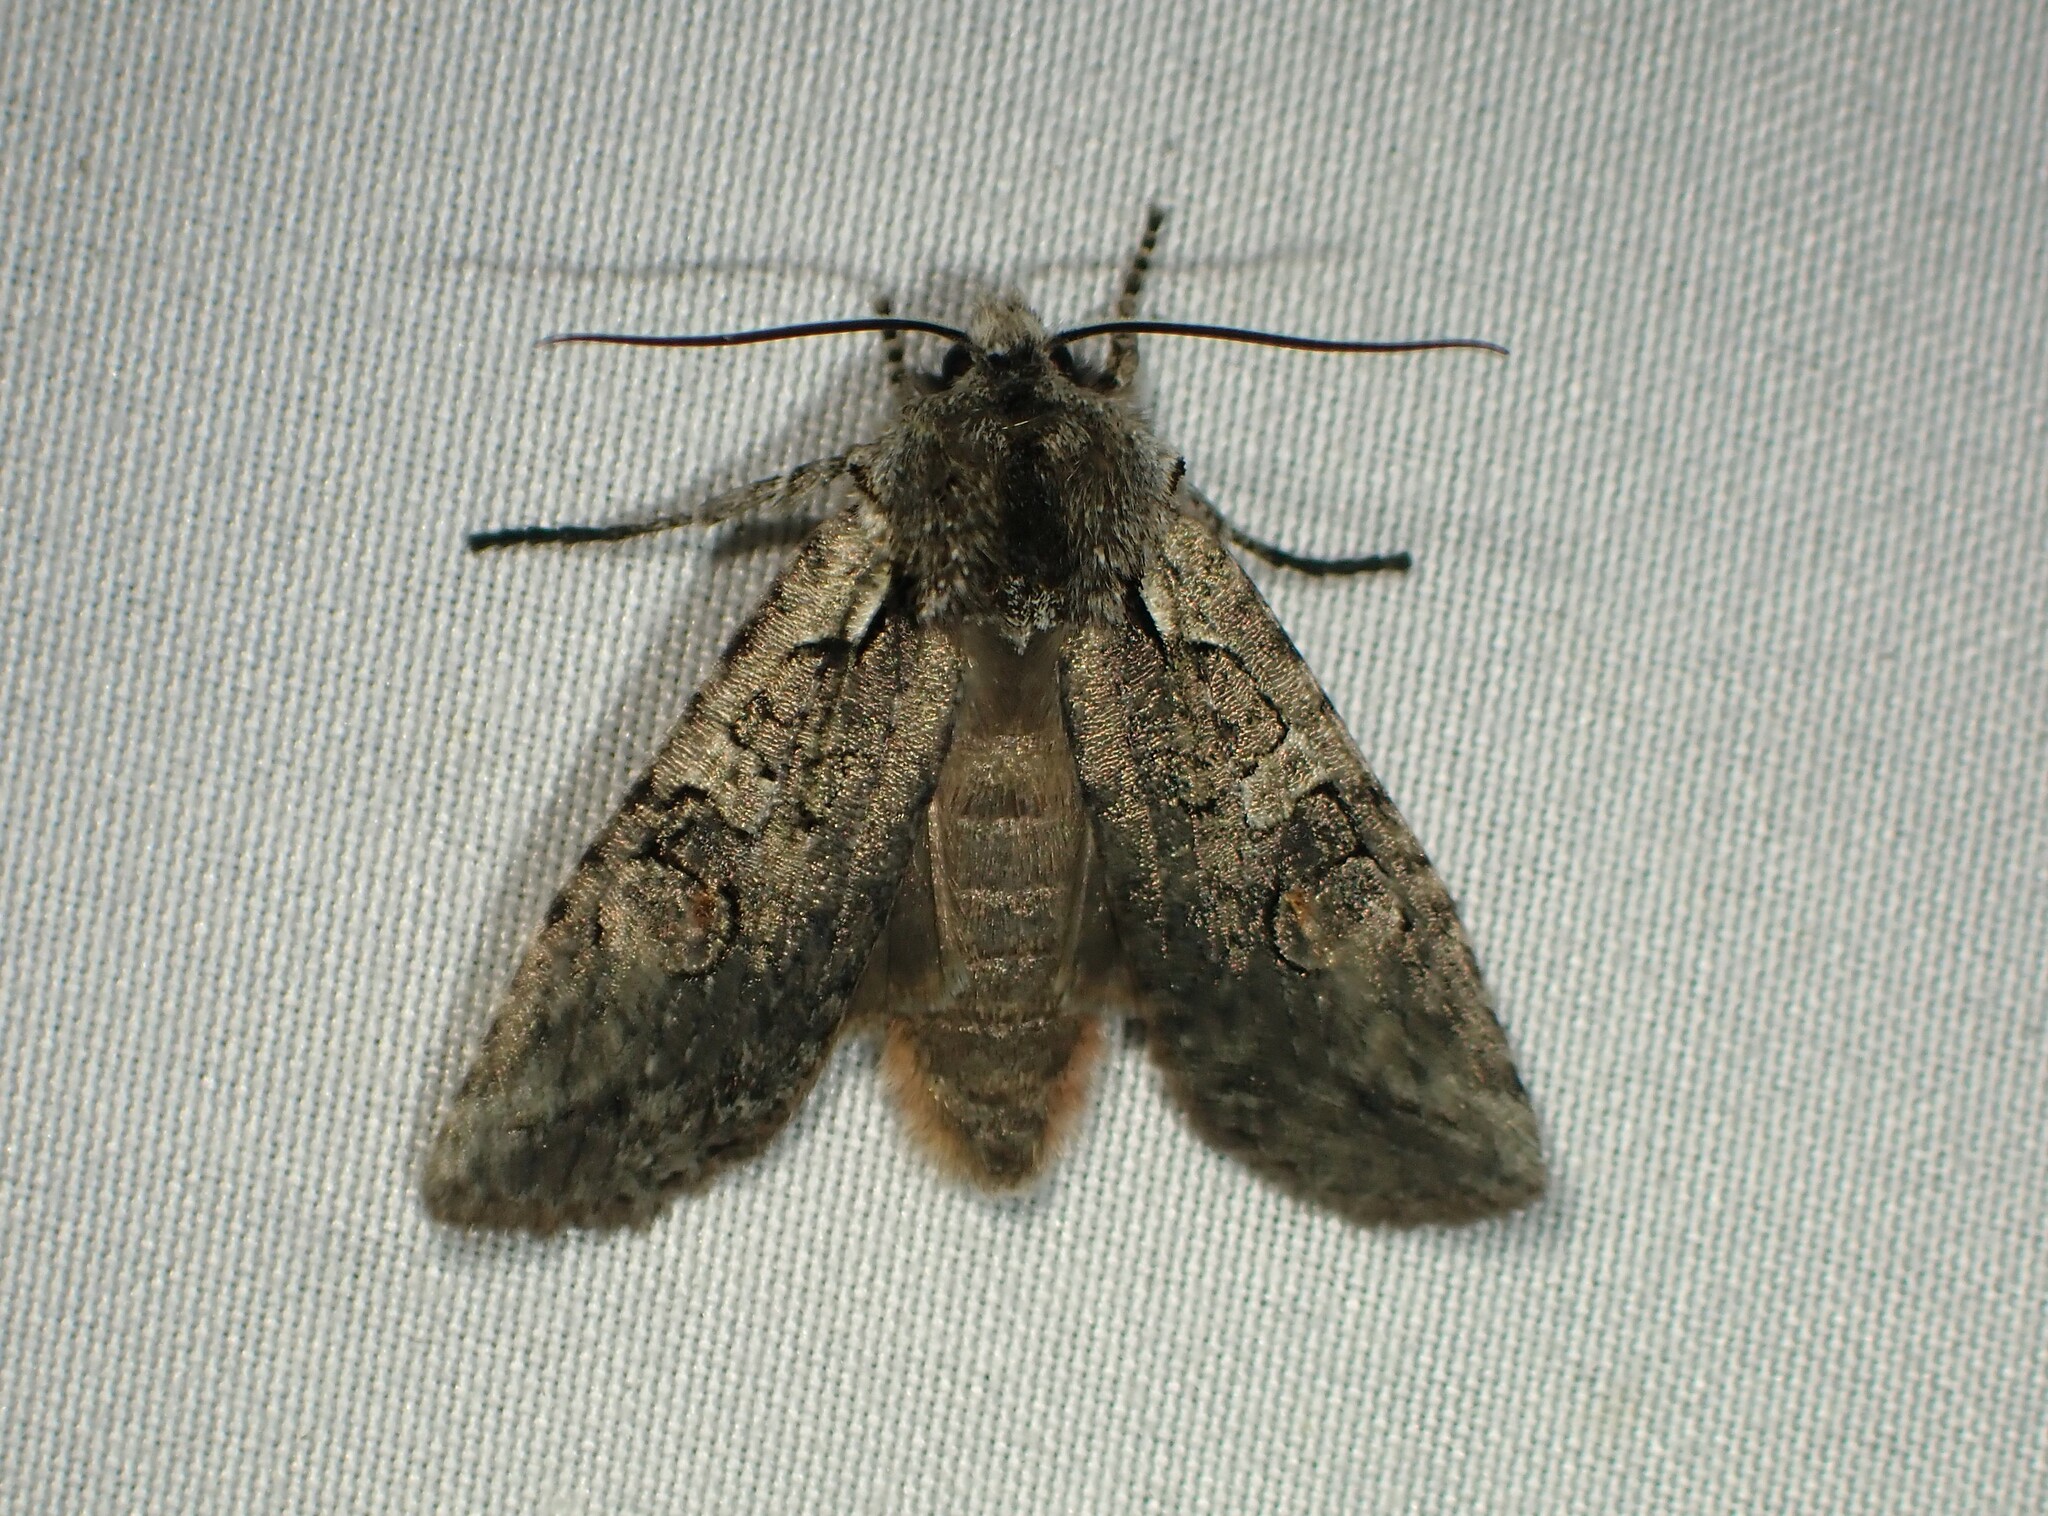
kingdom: Animalia
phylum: Arthropoda
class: Insecta
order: Lepidoptera
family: Noctuidae
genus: Lithophane
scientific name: Lithophane baileyi
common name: Bailey's pinion moth
